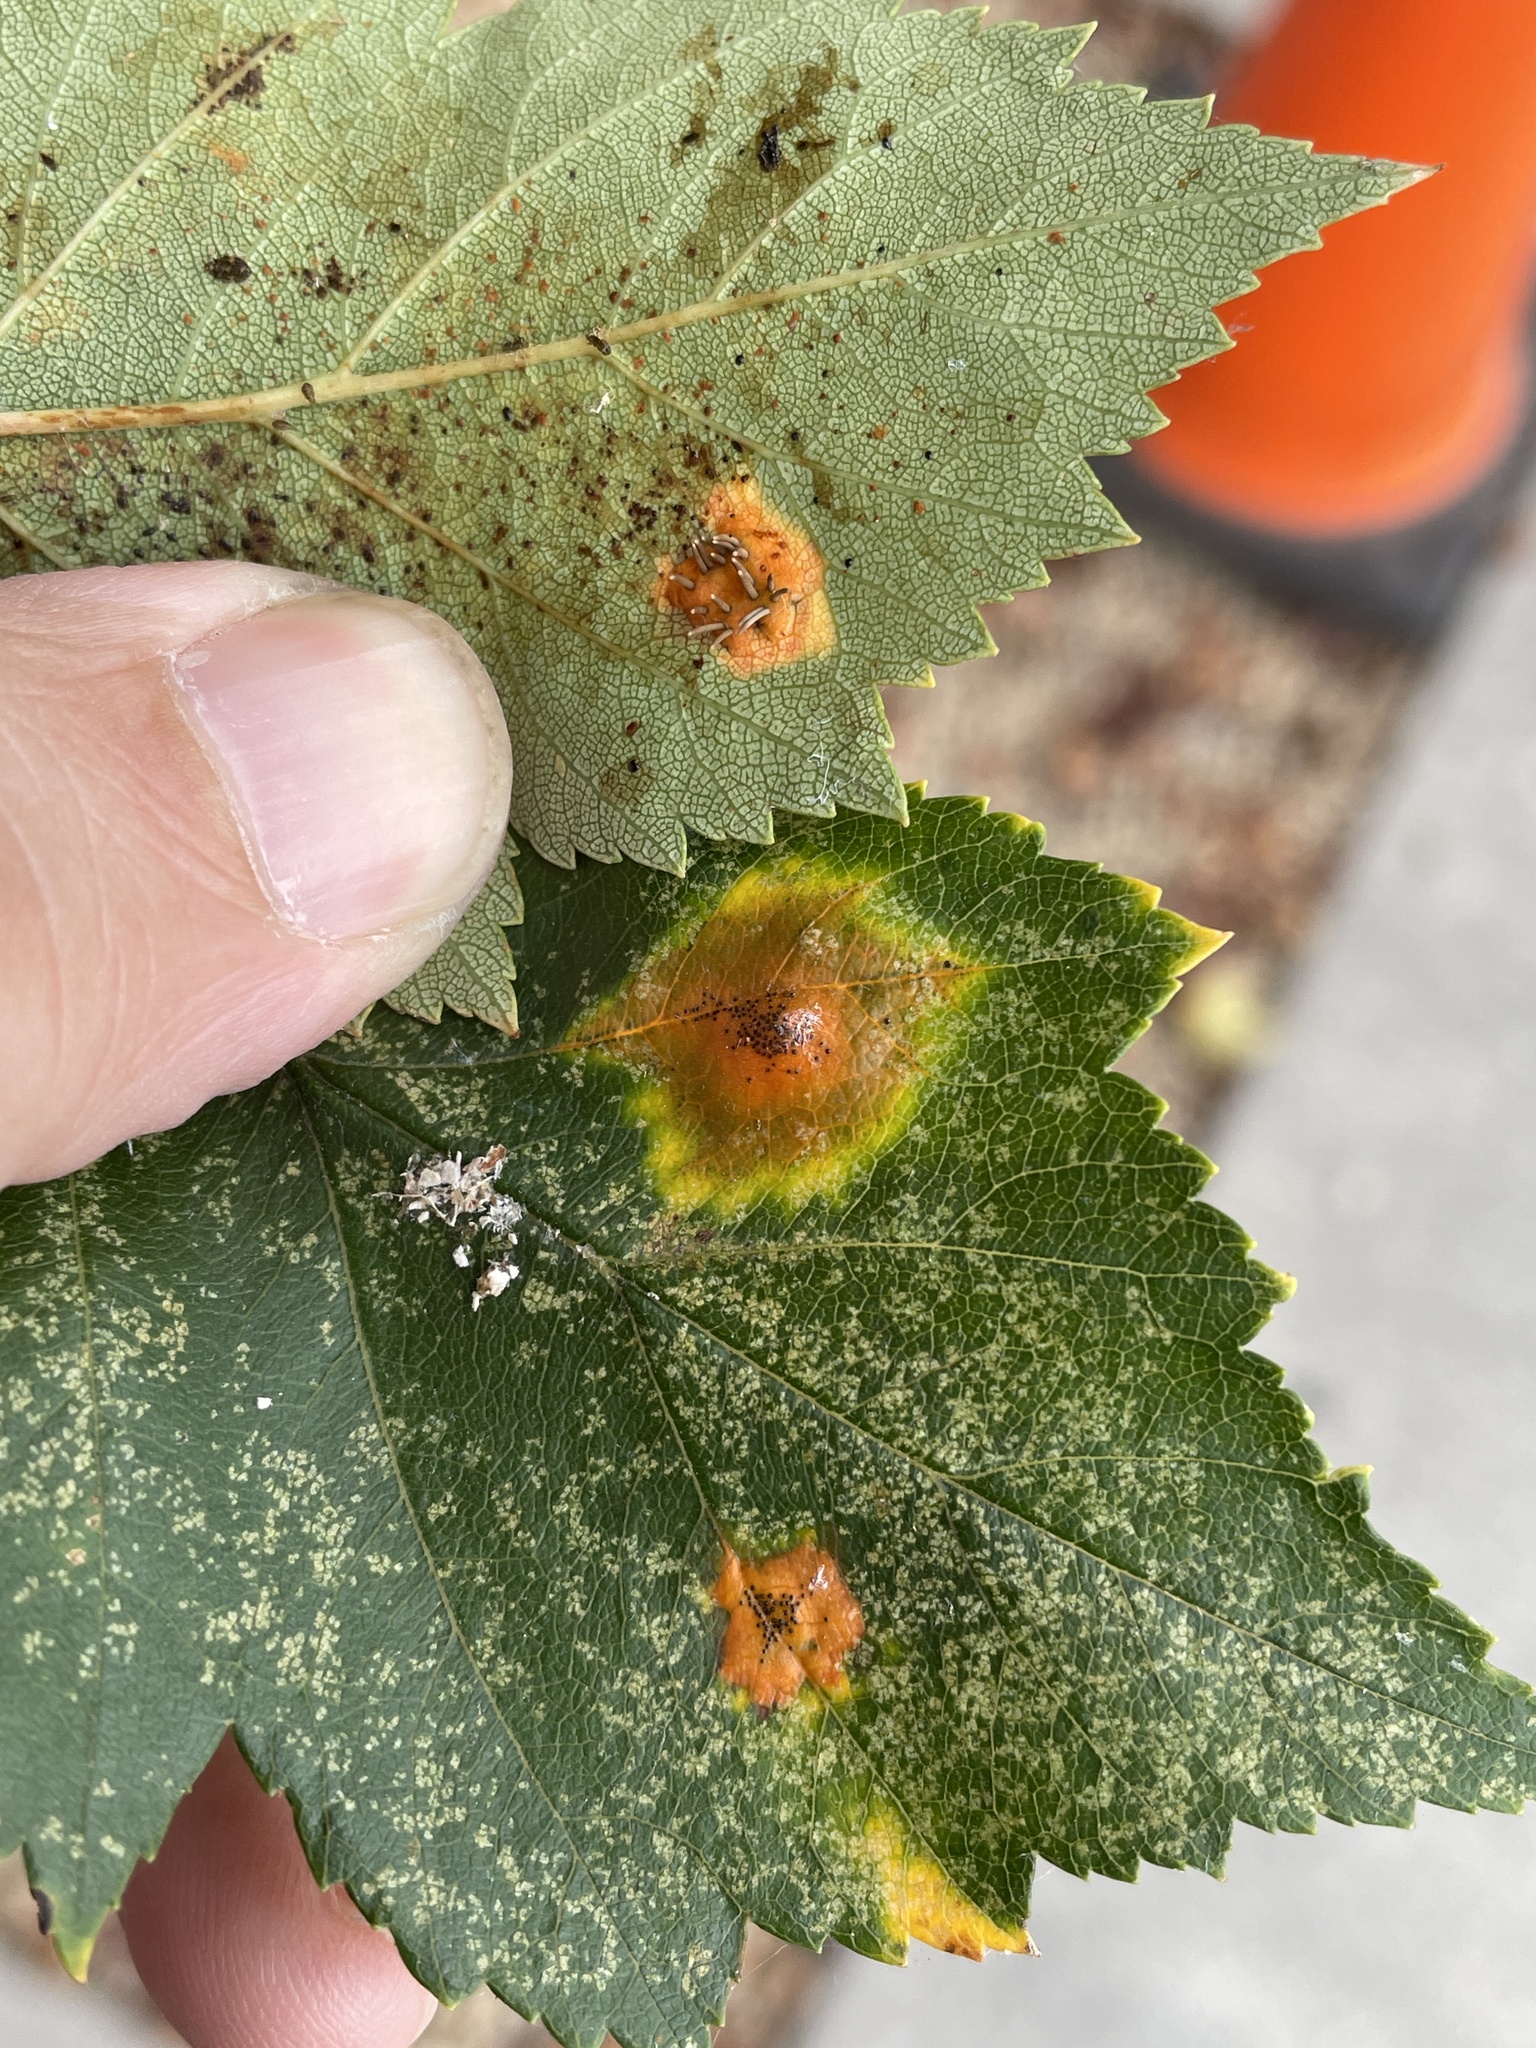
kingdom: Fungi
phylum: Basidiomycota
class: Pucciniomycetes
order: Pucciniales
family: Gymnosporangiaceae
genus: Gymnosporangium
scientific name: Gymnosporangium globosum
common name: Juniper-hawthorn rust
